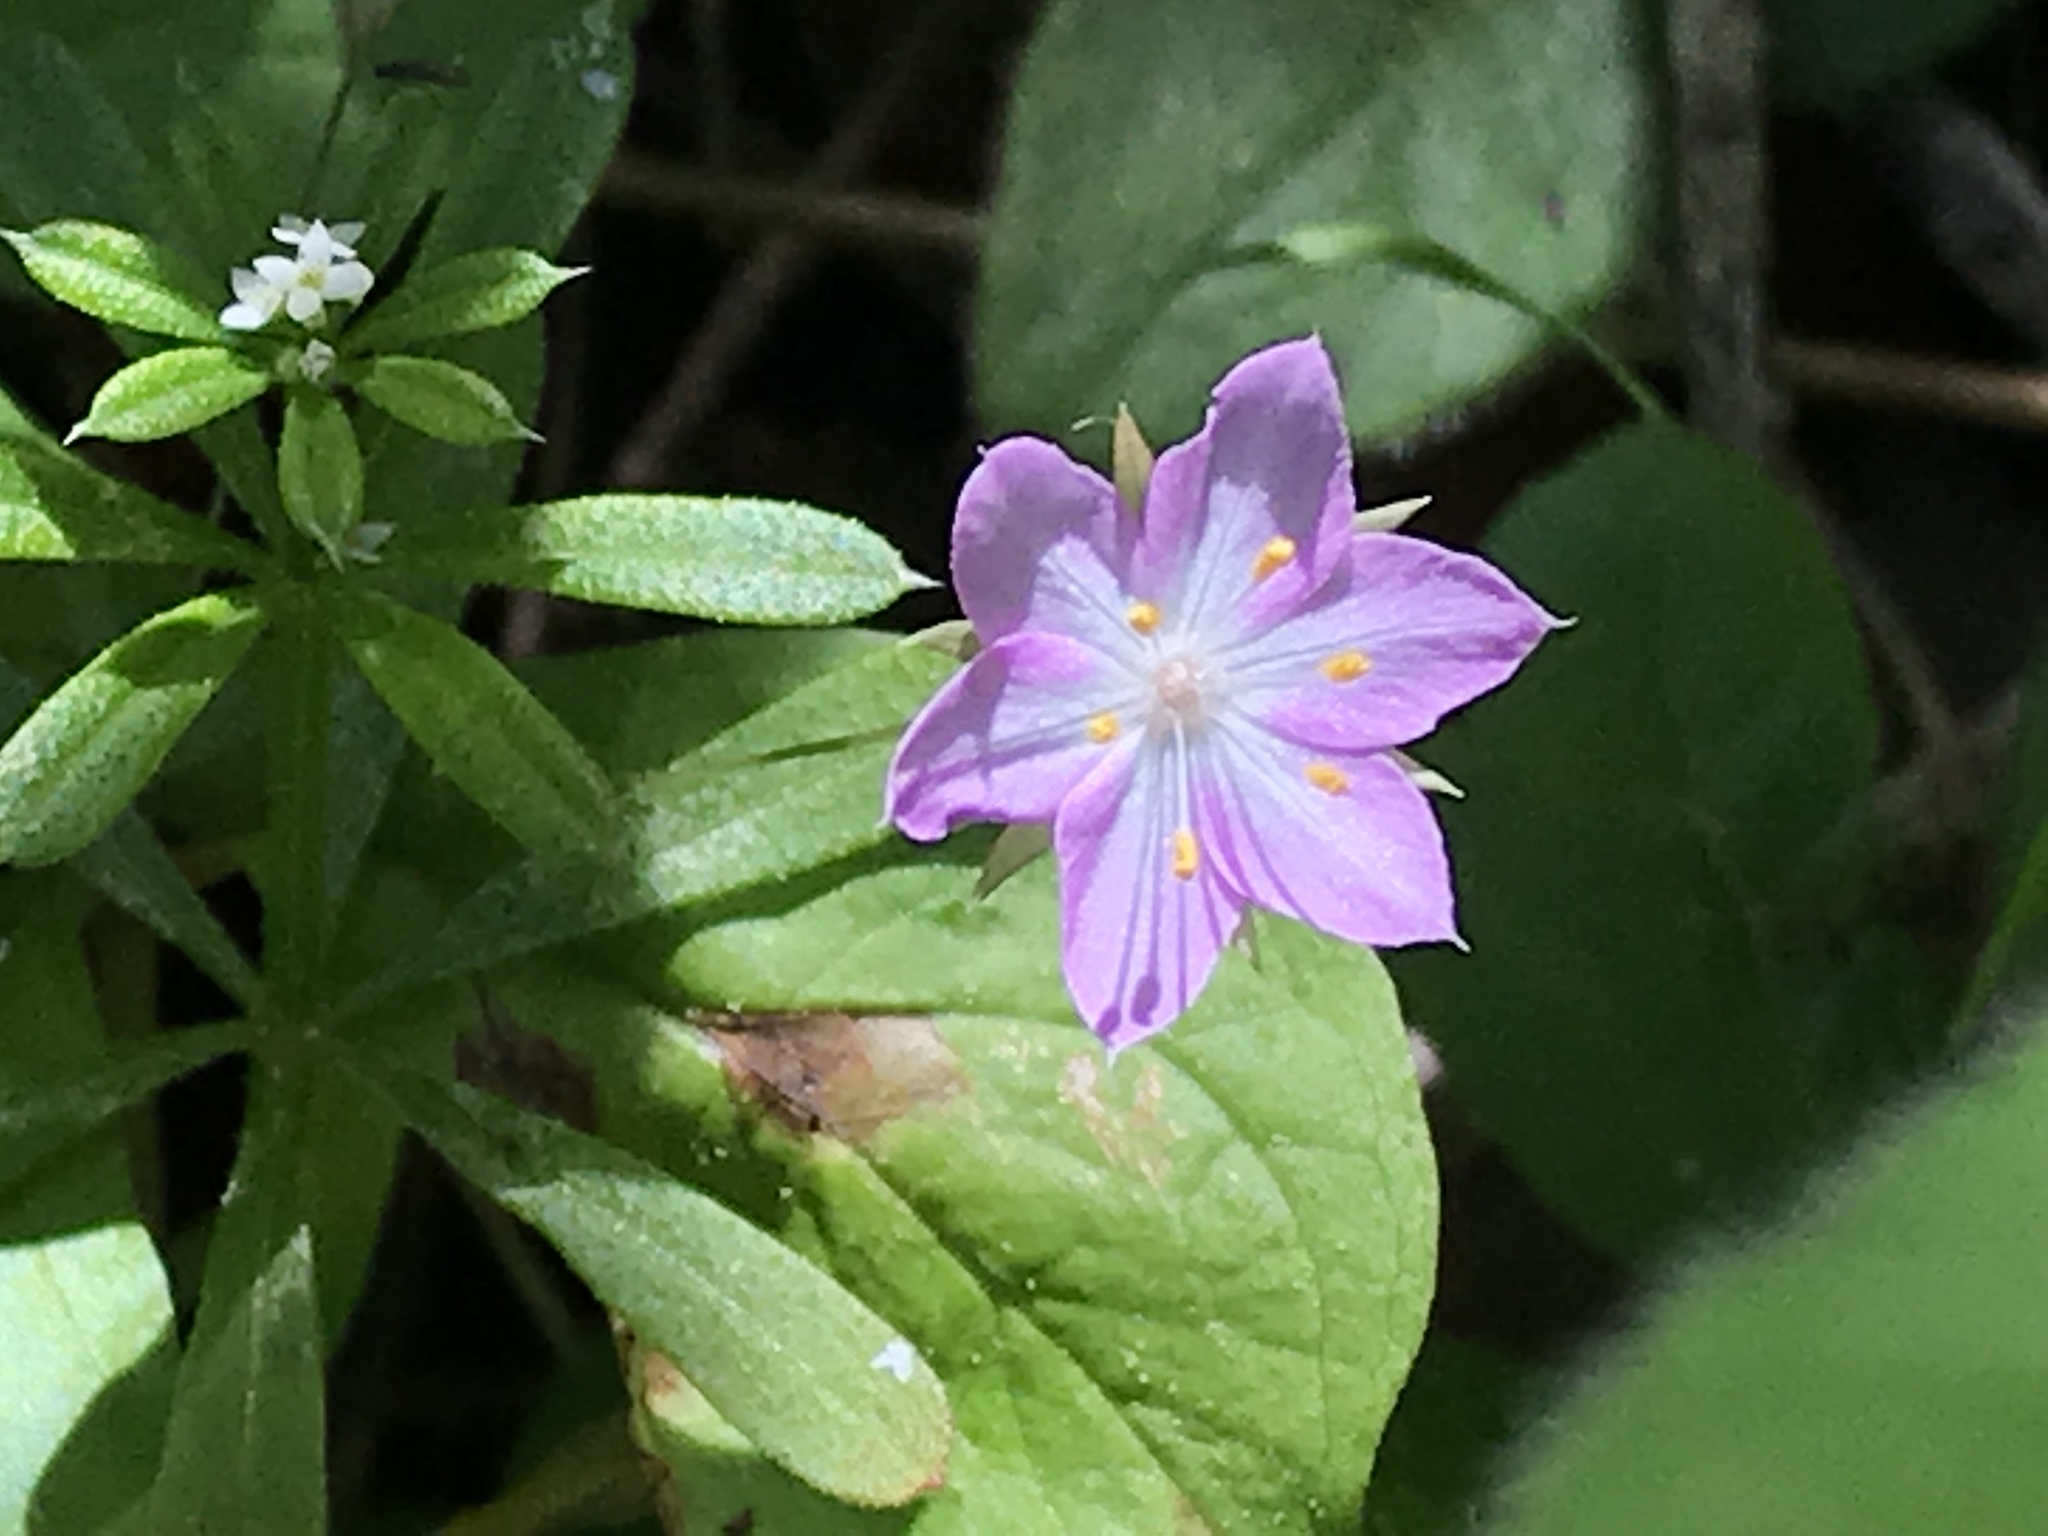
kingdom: Plantae
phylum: Tracheophyta
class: Magnoliopsida
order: Ericales
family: Primulaceae
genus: Lysimachia
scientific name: Lysimachia latifolia
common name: Pacific starflower
